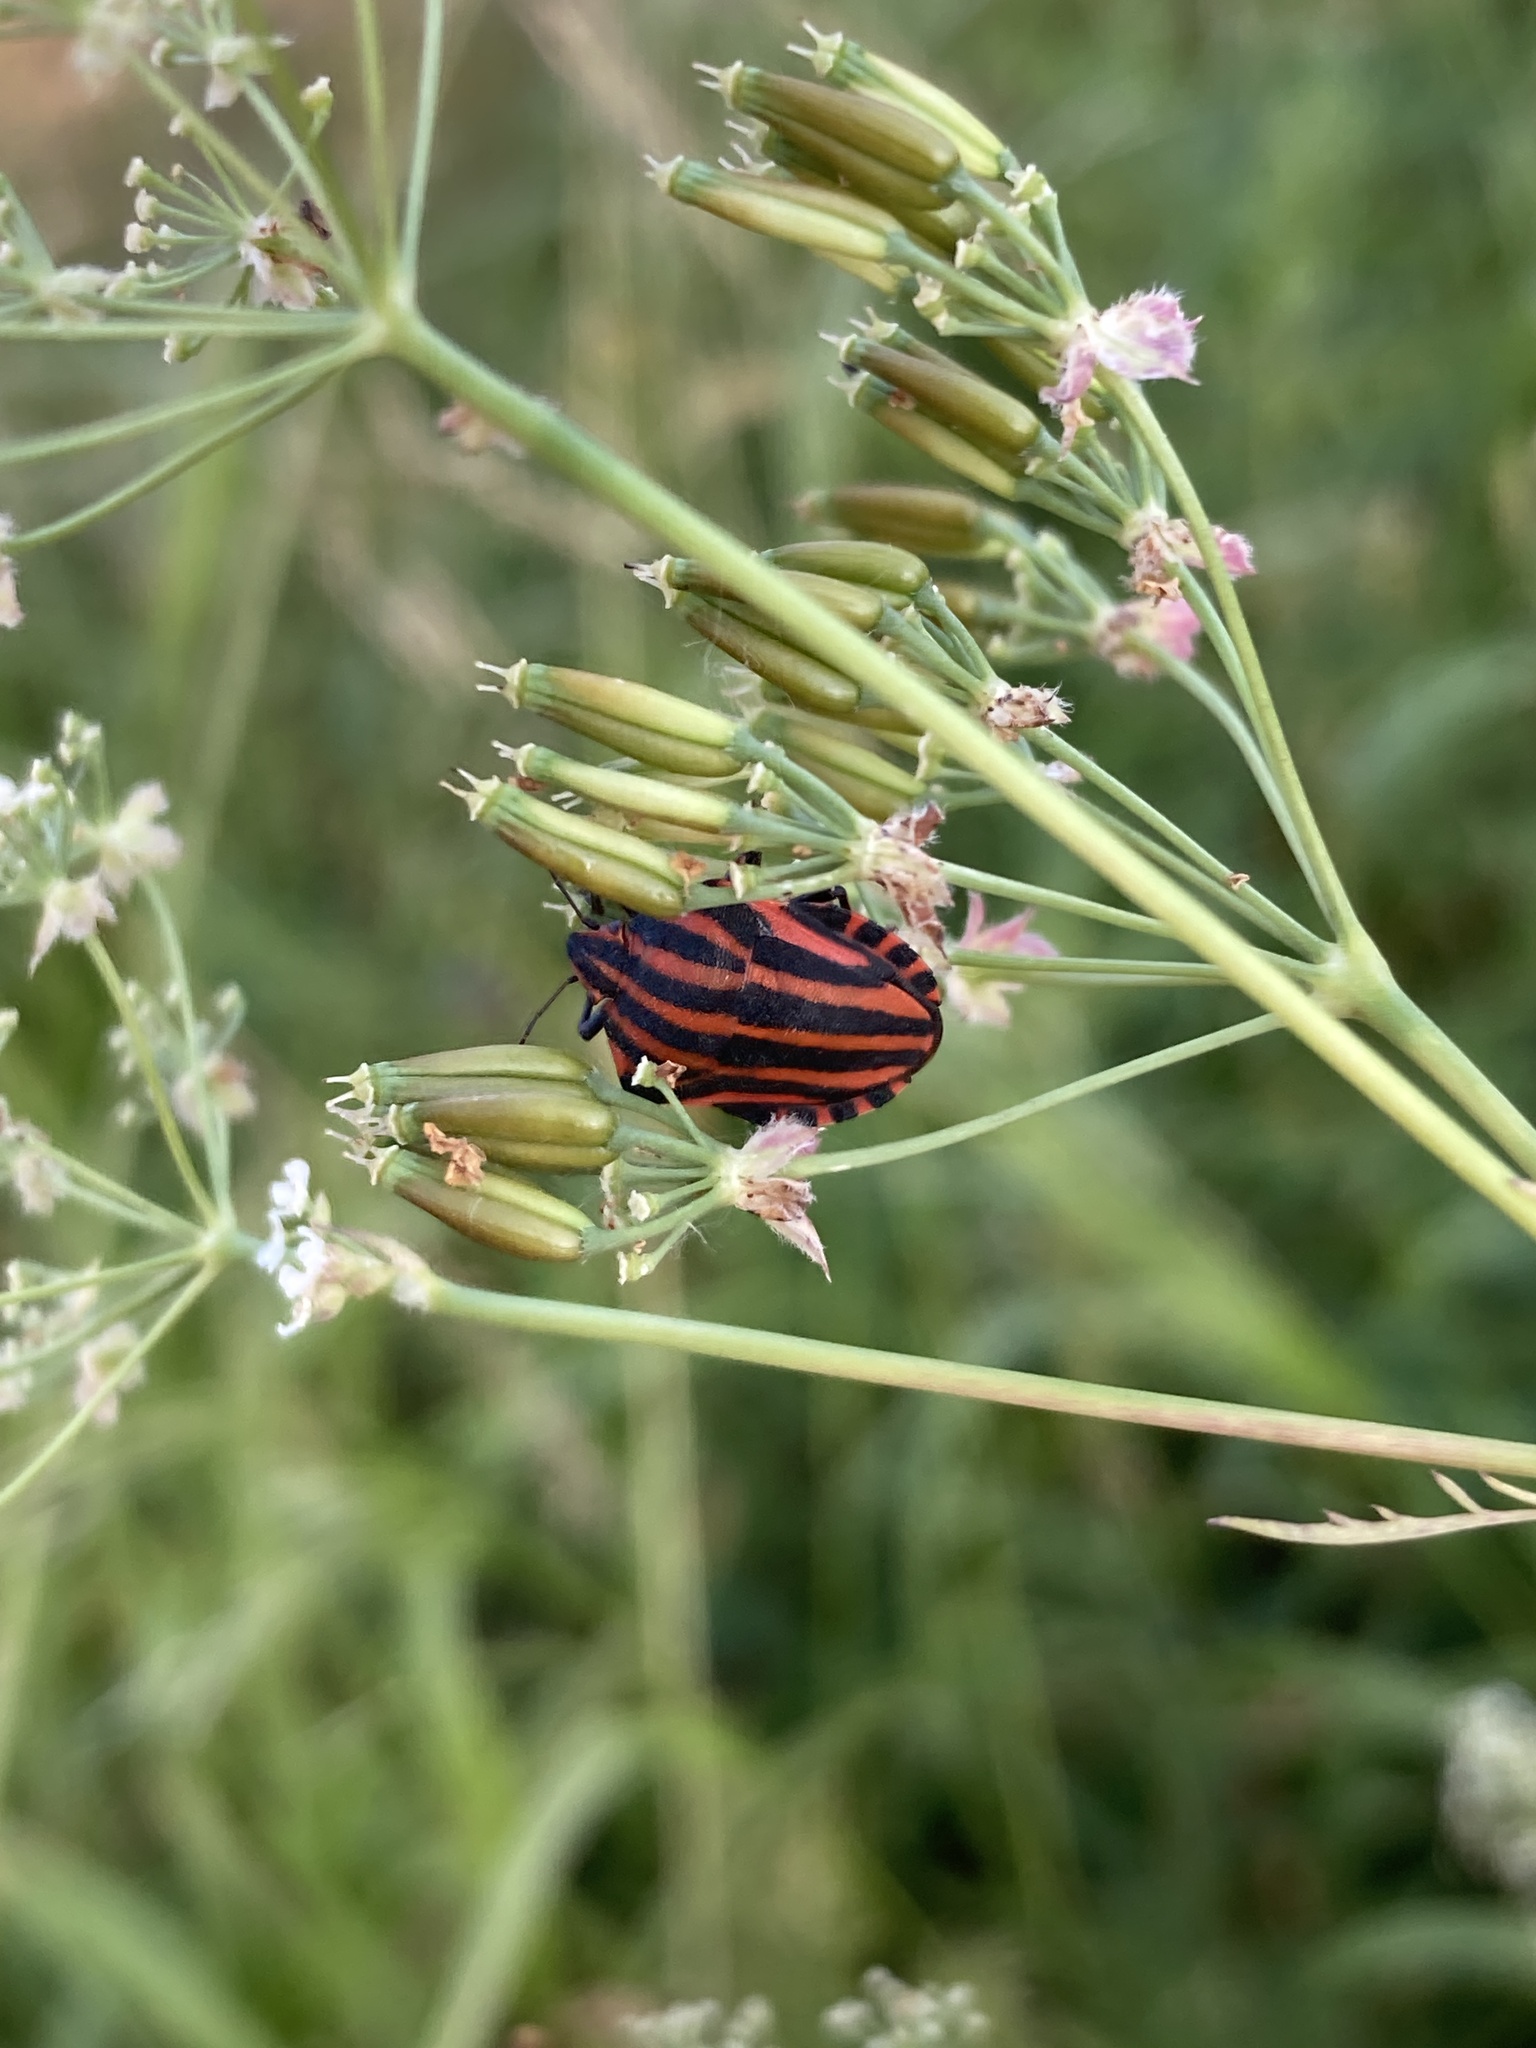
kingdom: Animalia
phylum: Arthropoda
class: Insecta
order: Hemiptera
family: Pentatomidae
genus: Graphosoma
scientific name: Graphosoma italicum
